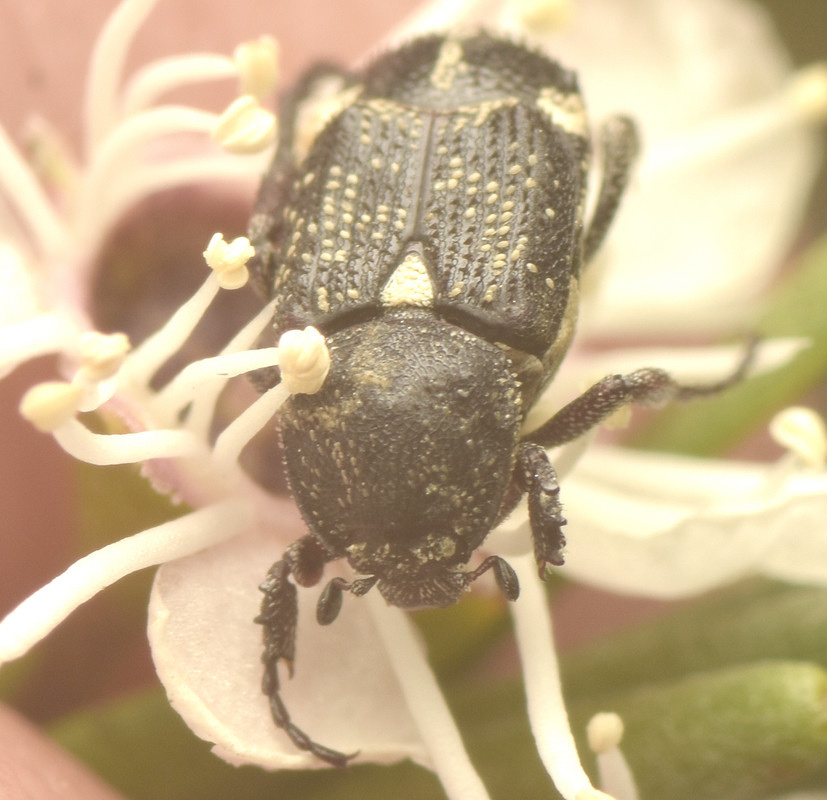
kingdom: Animalia
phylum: Arthropoda
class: Insecta
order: Coleoptera
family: Scarabaeidae
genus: Microvalgus
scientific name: Microvalgus nigrinus
